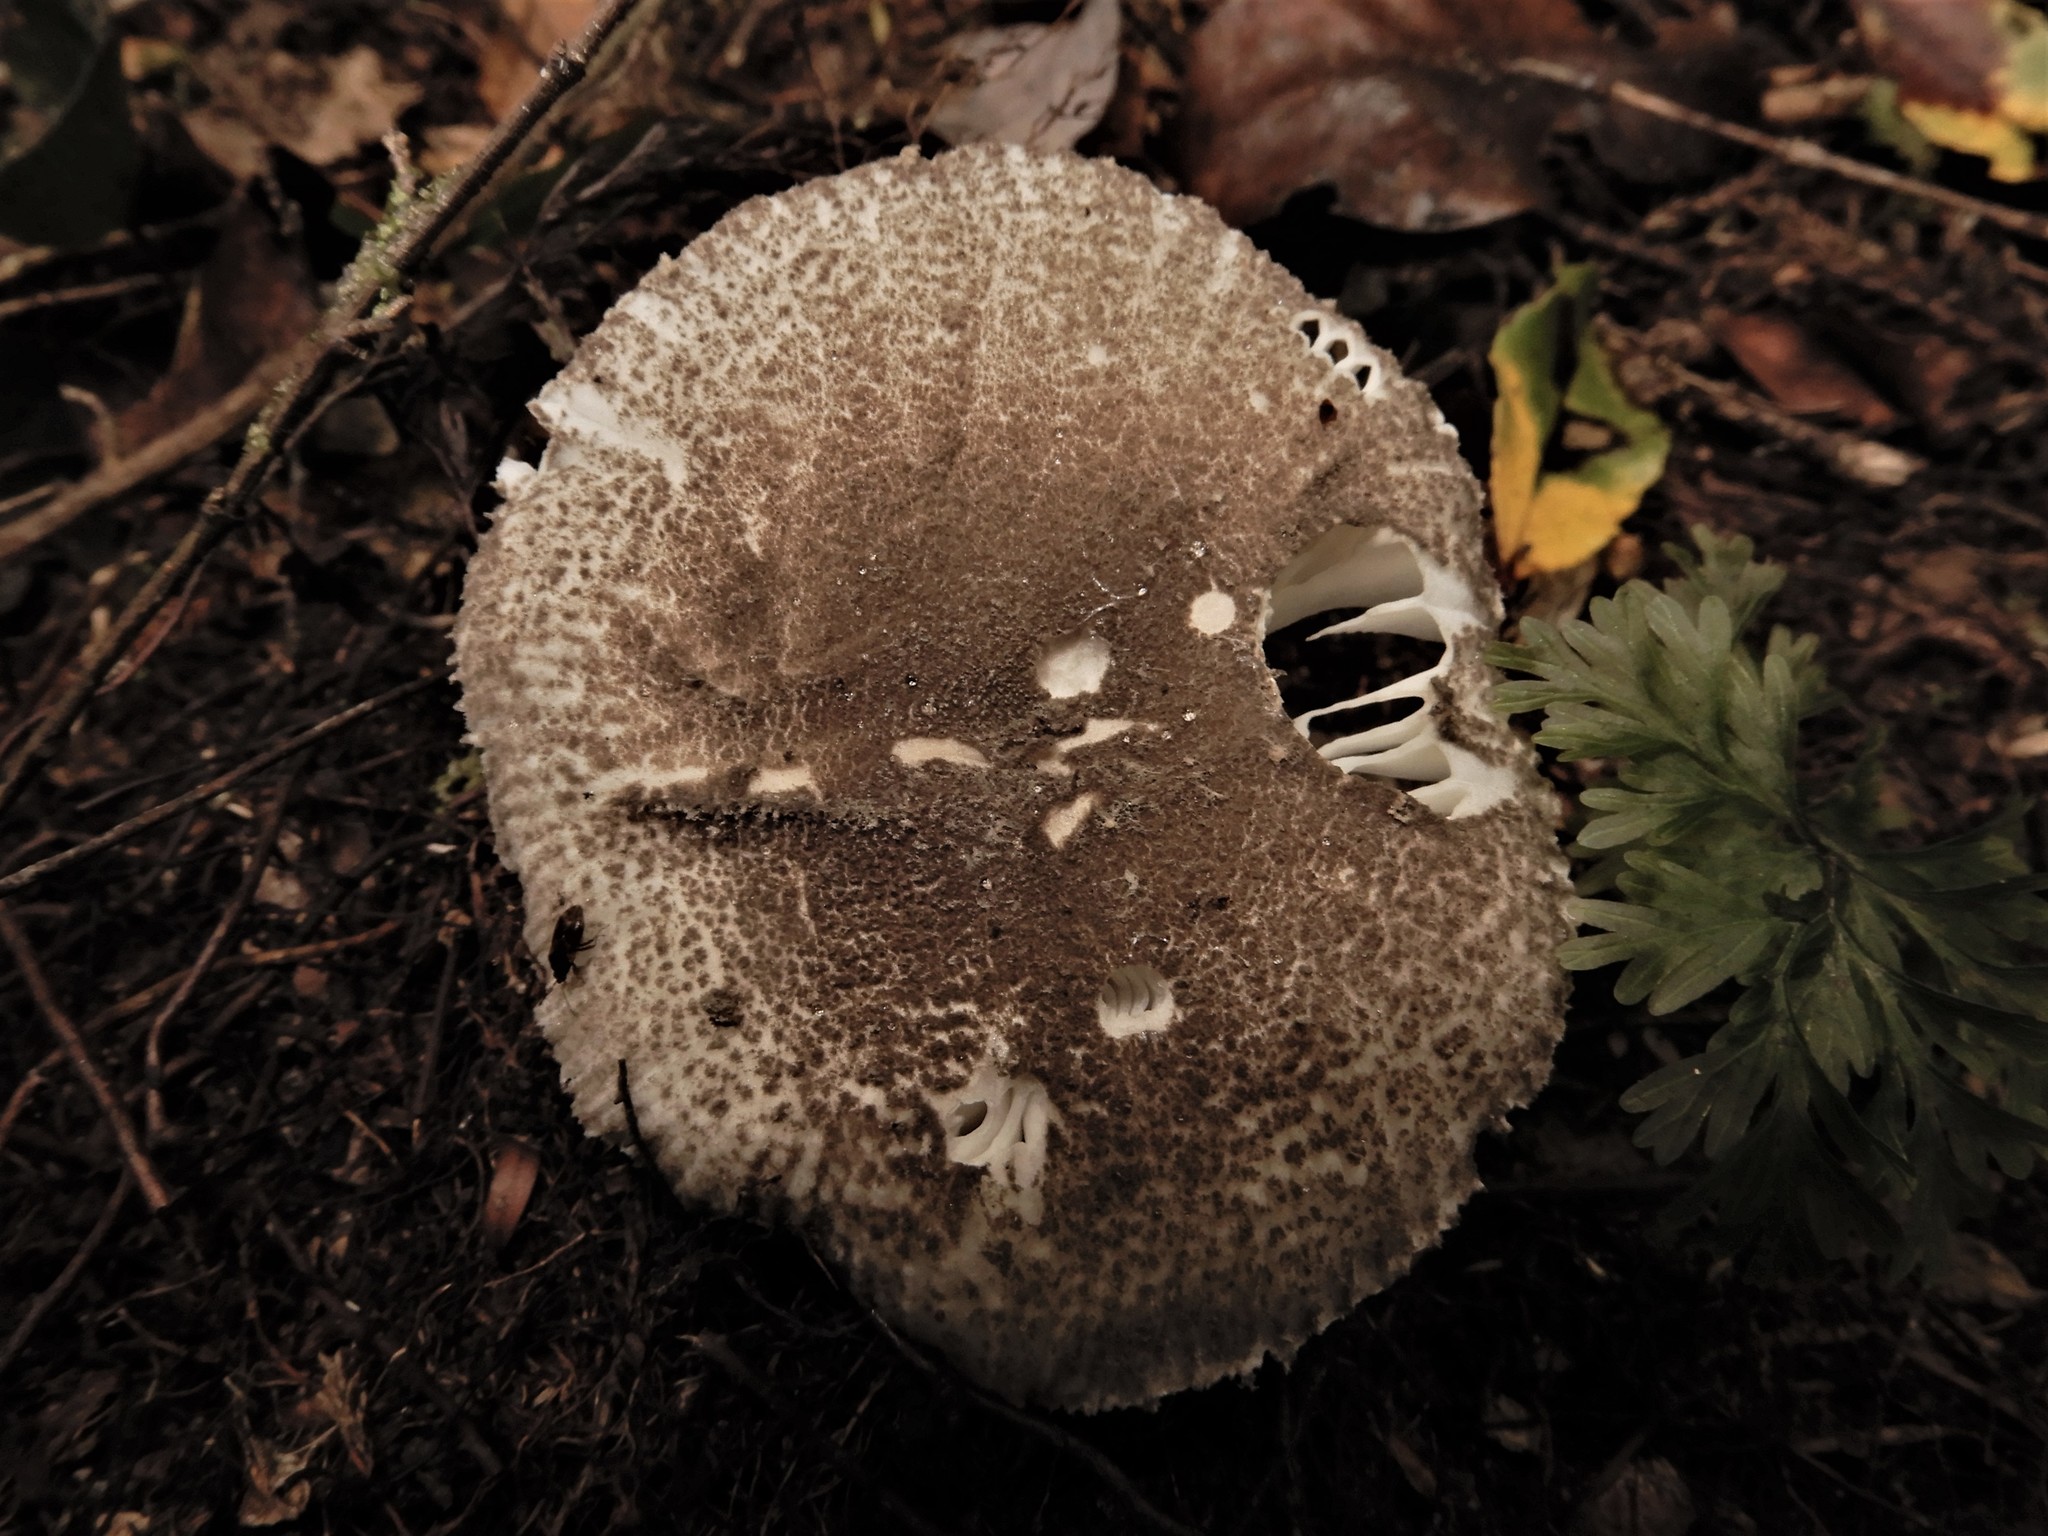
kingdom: Fungi
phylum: Basidiomycota
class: Agaricomycetes
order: Agaricales
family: Amanitaceae
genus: Amanita
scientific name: Amanita nehuta
